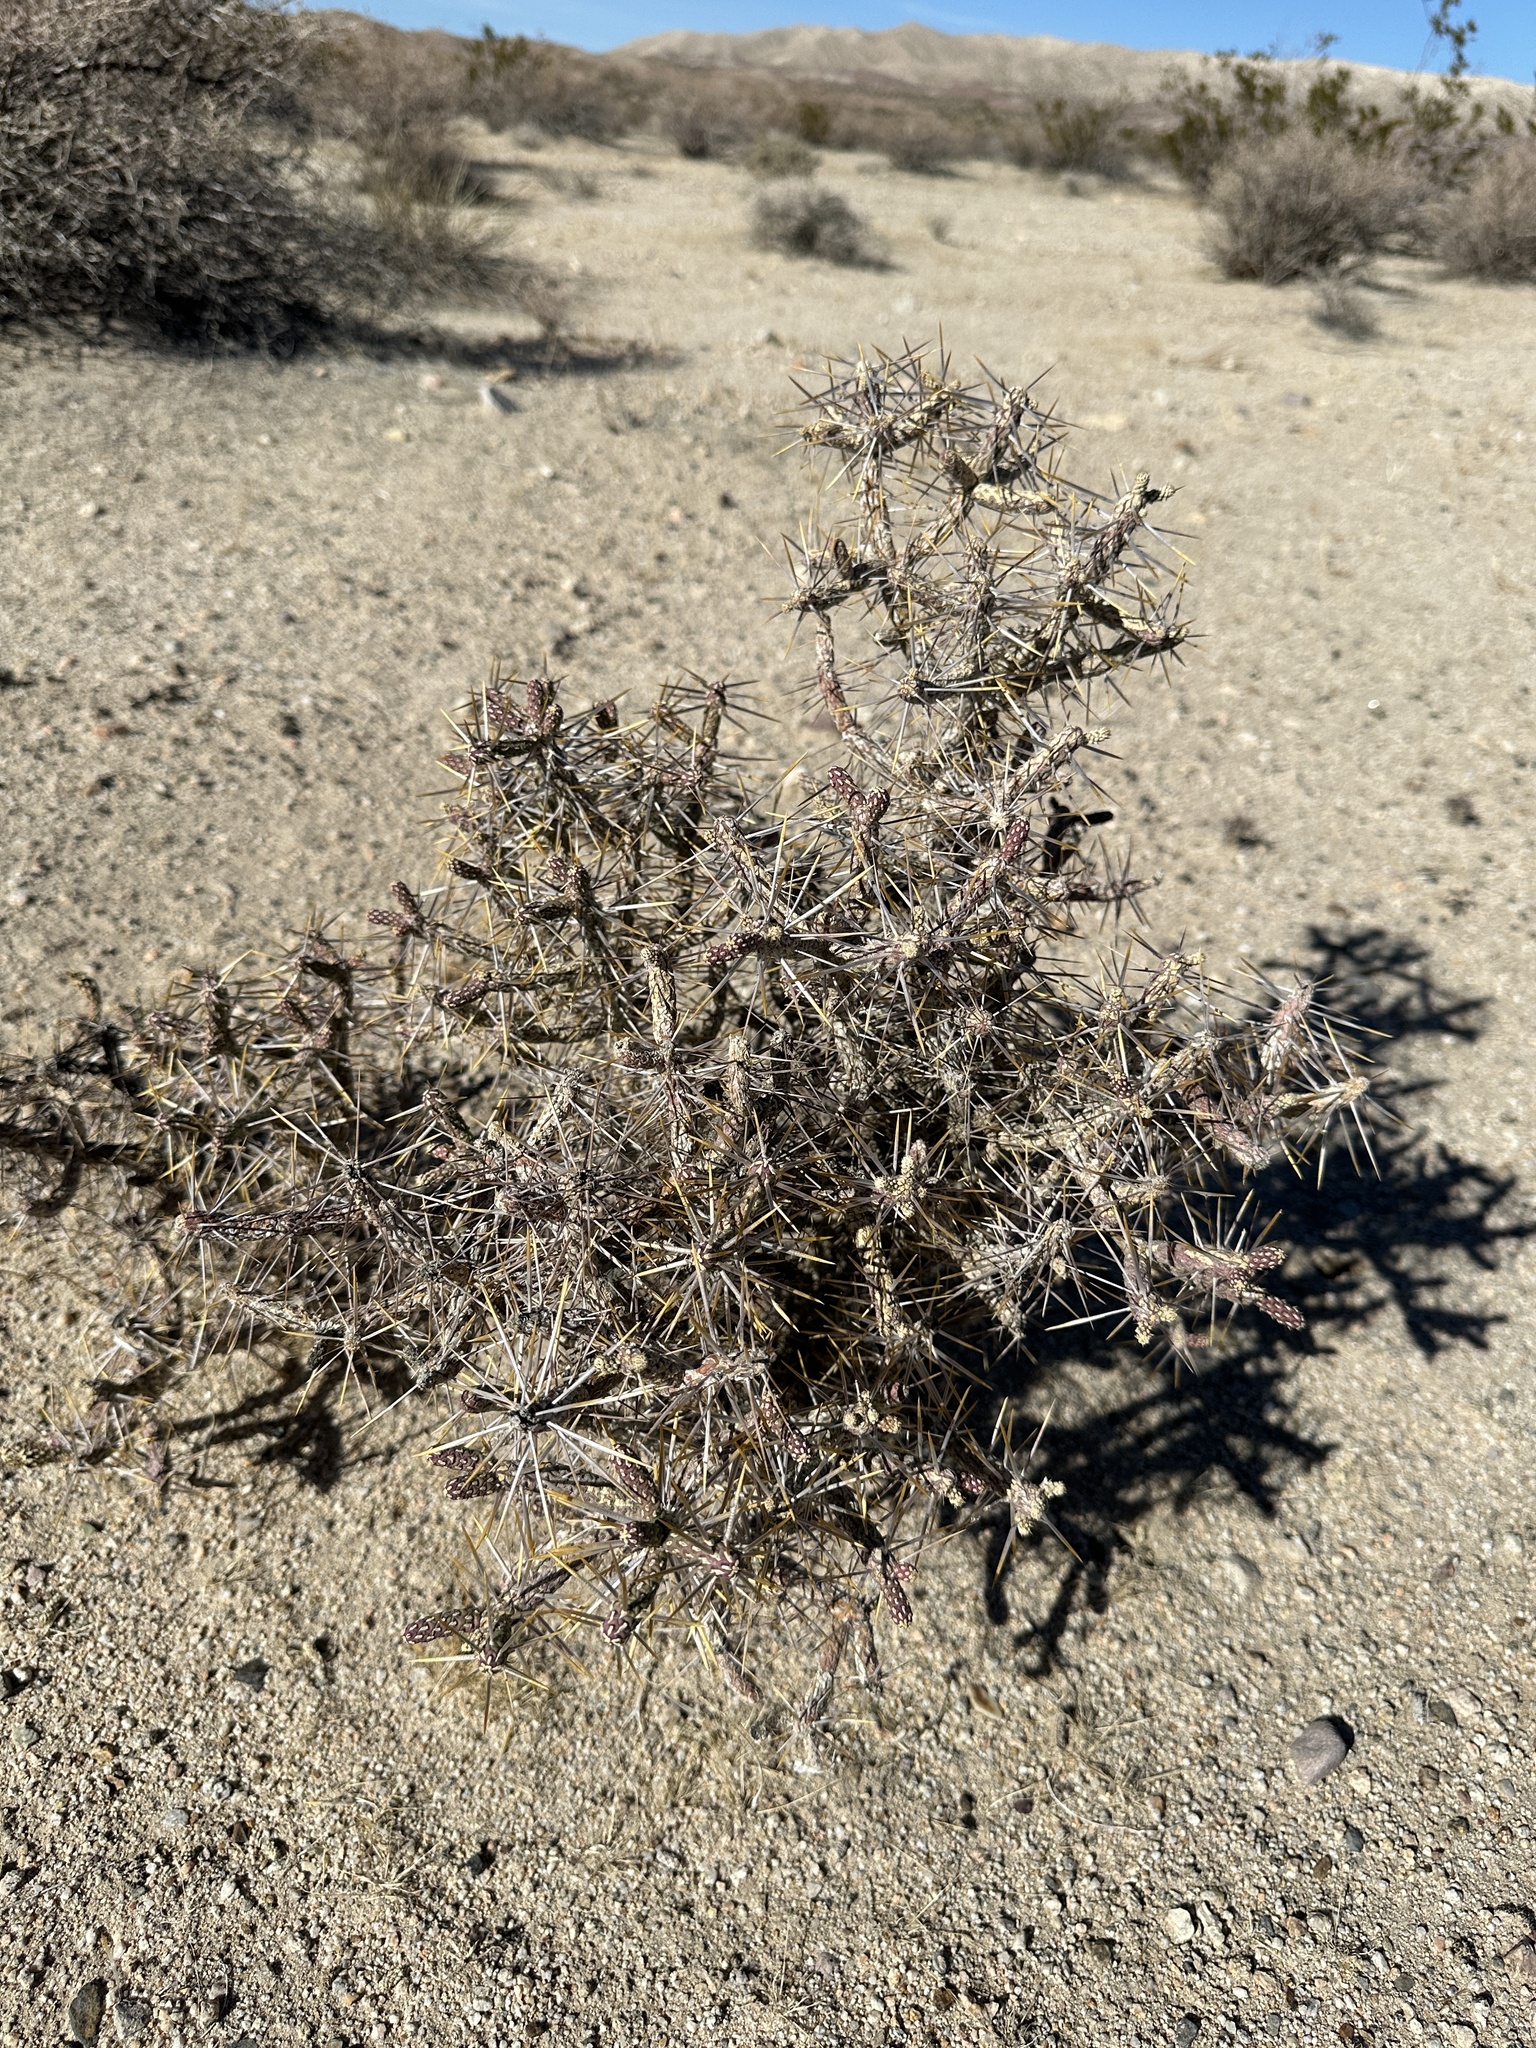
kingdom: Plantae
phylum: Tracheophyta
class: Magnoliopsida
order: Caryophyllales
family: Cactaceae
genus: Cylindropuntia
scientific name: Cylindropuntia ramosissima
